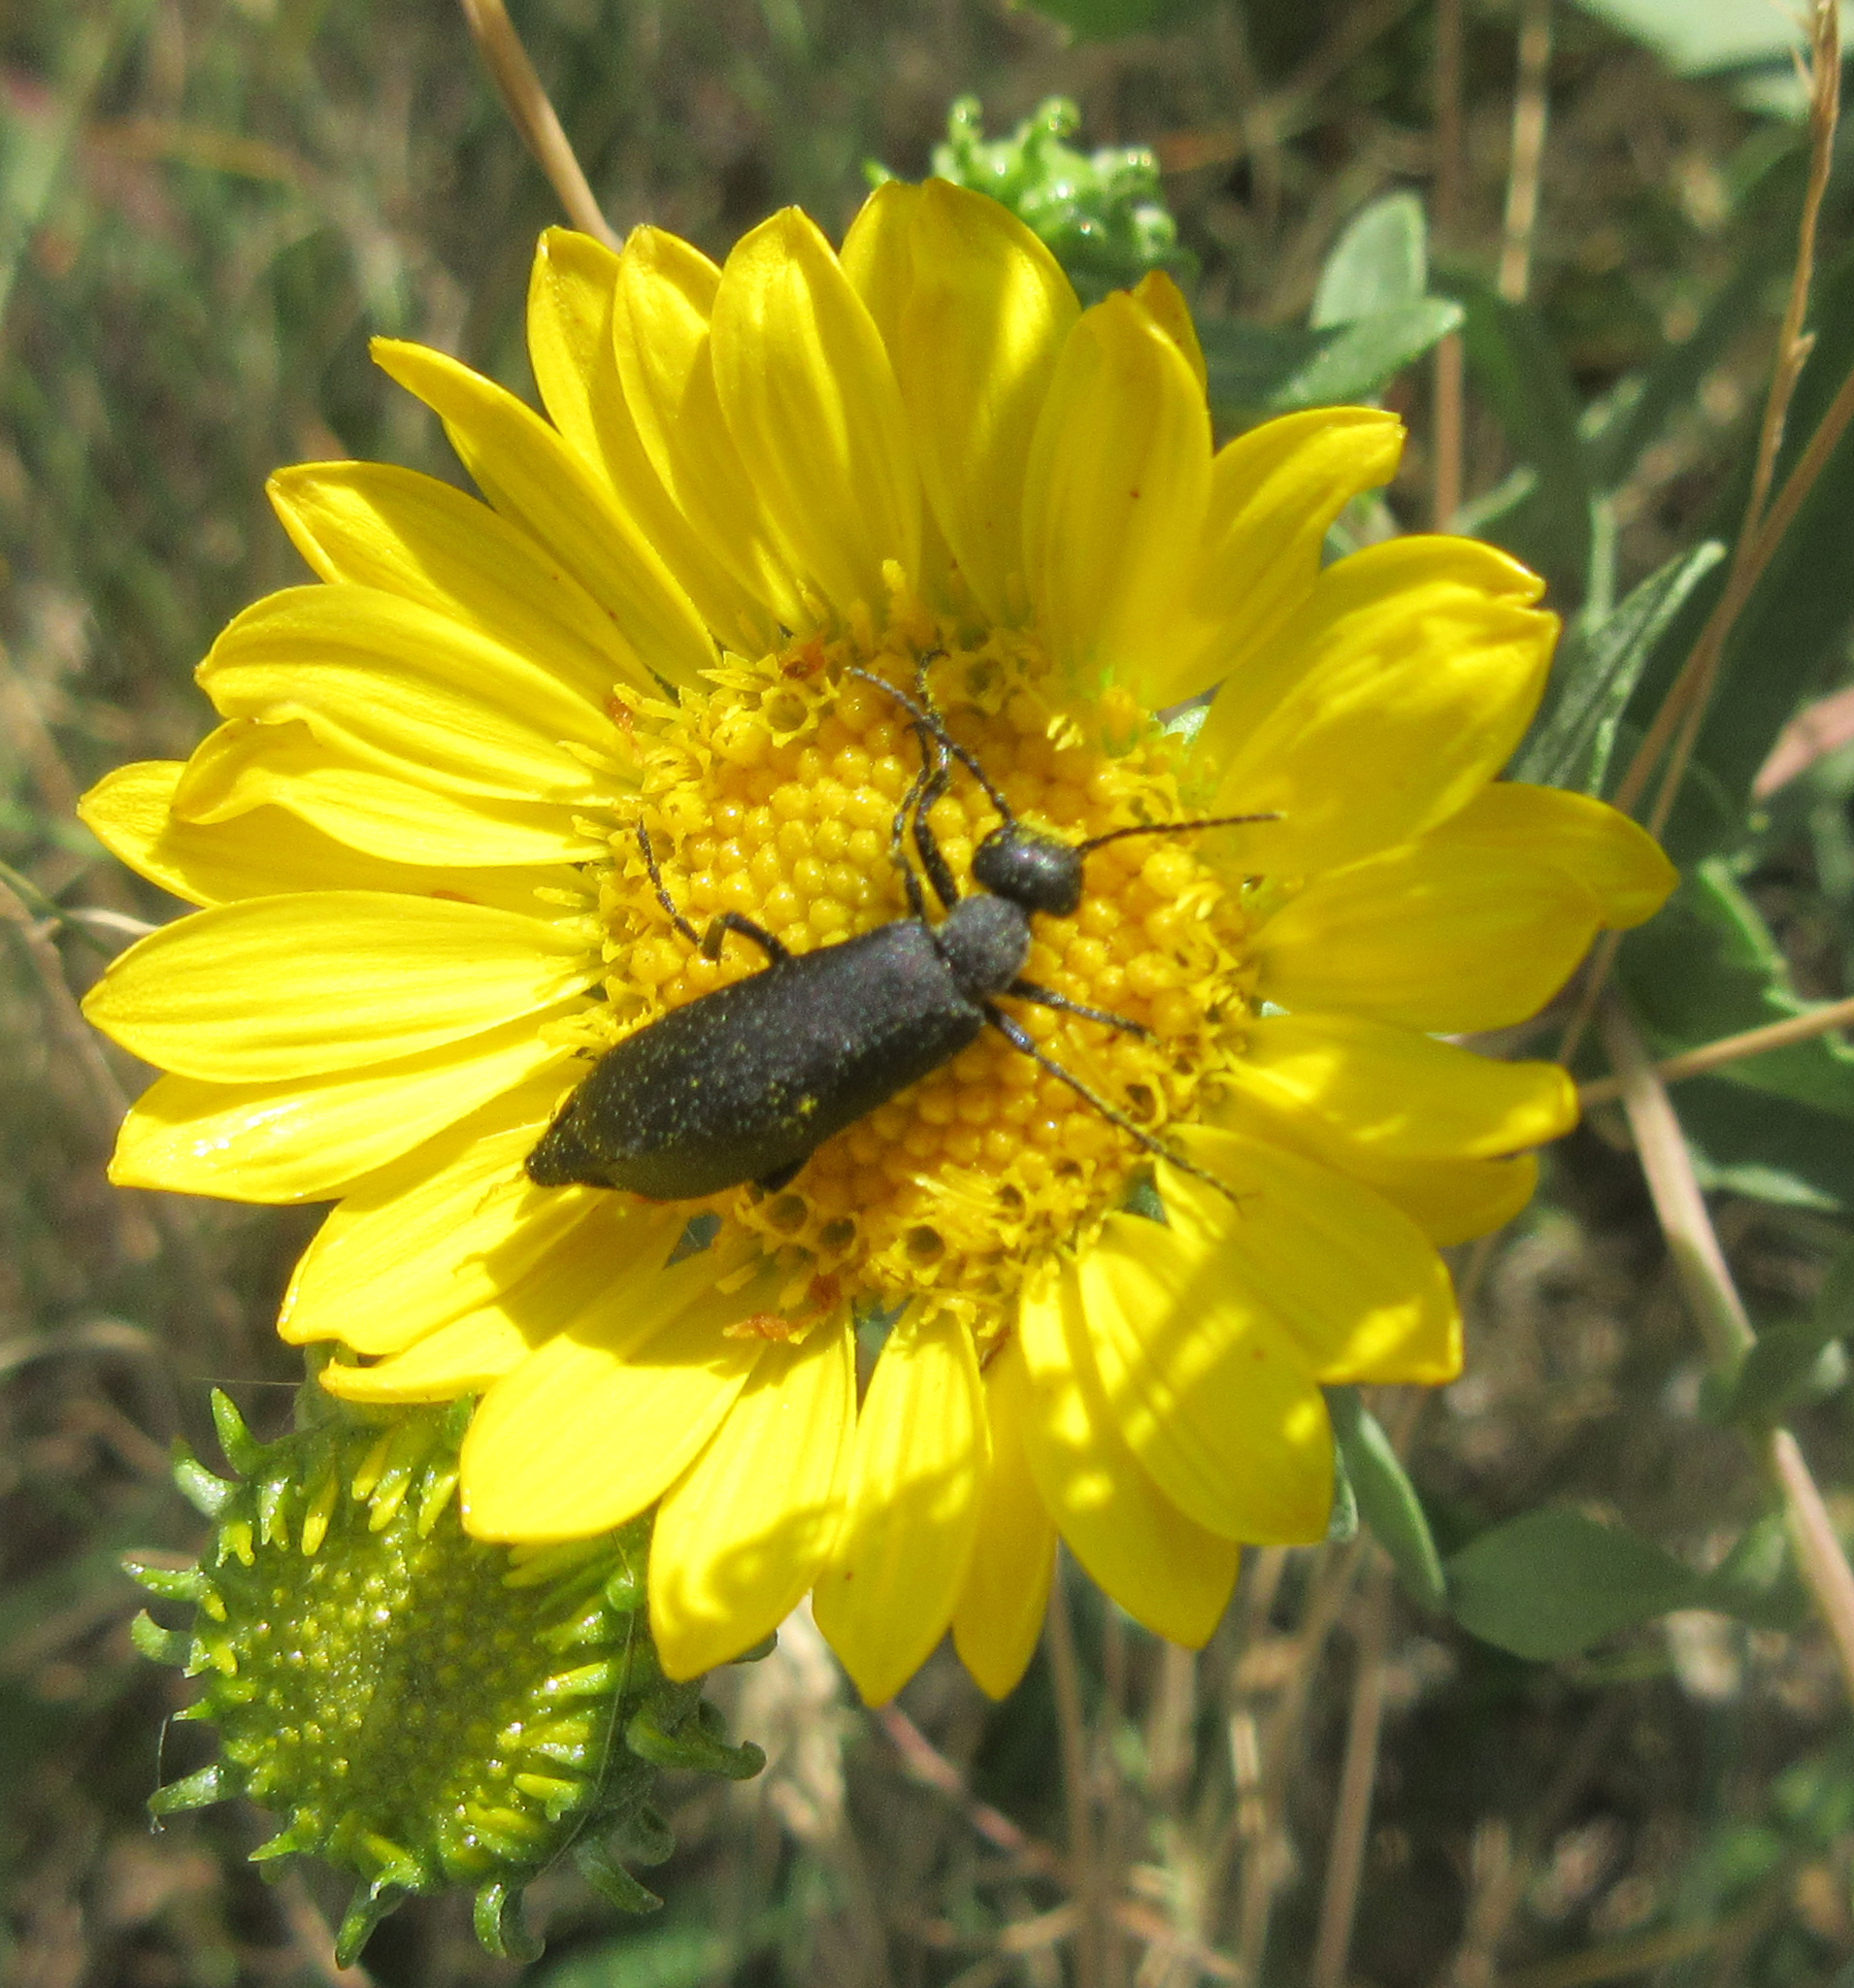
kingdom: Animalia
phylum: Arthropoda
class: Insecta
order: Coleoptera
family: Meloidae
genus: Epicauta
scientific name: Epicauta pensylvanica
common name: Black blister beetle
